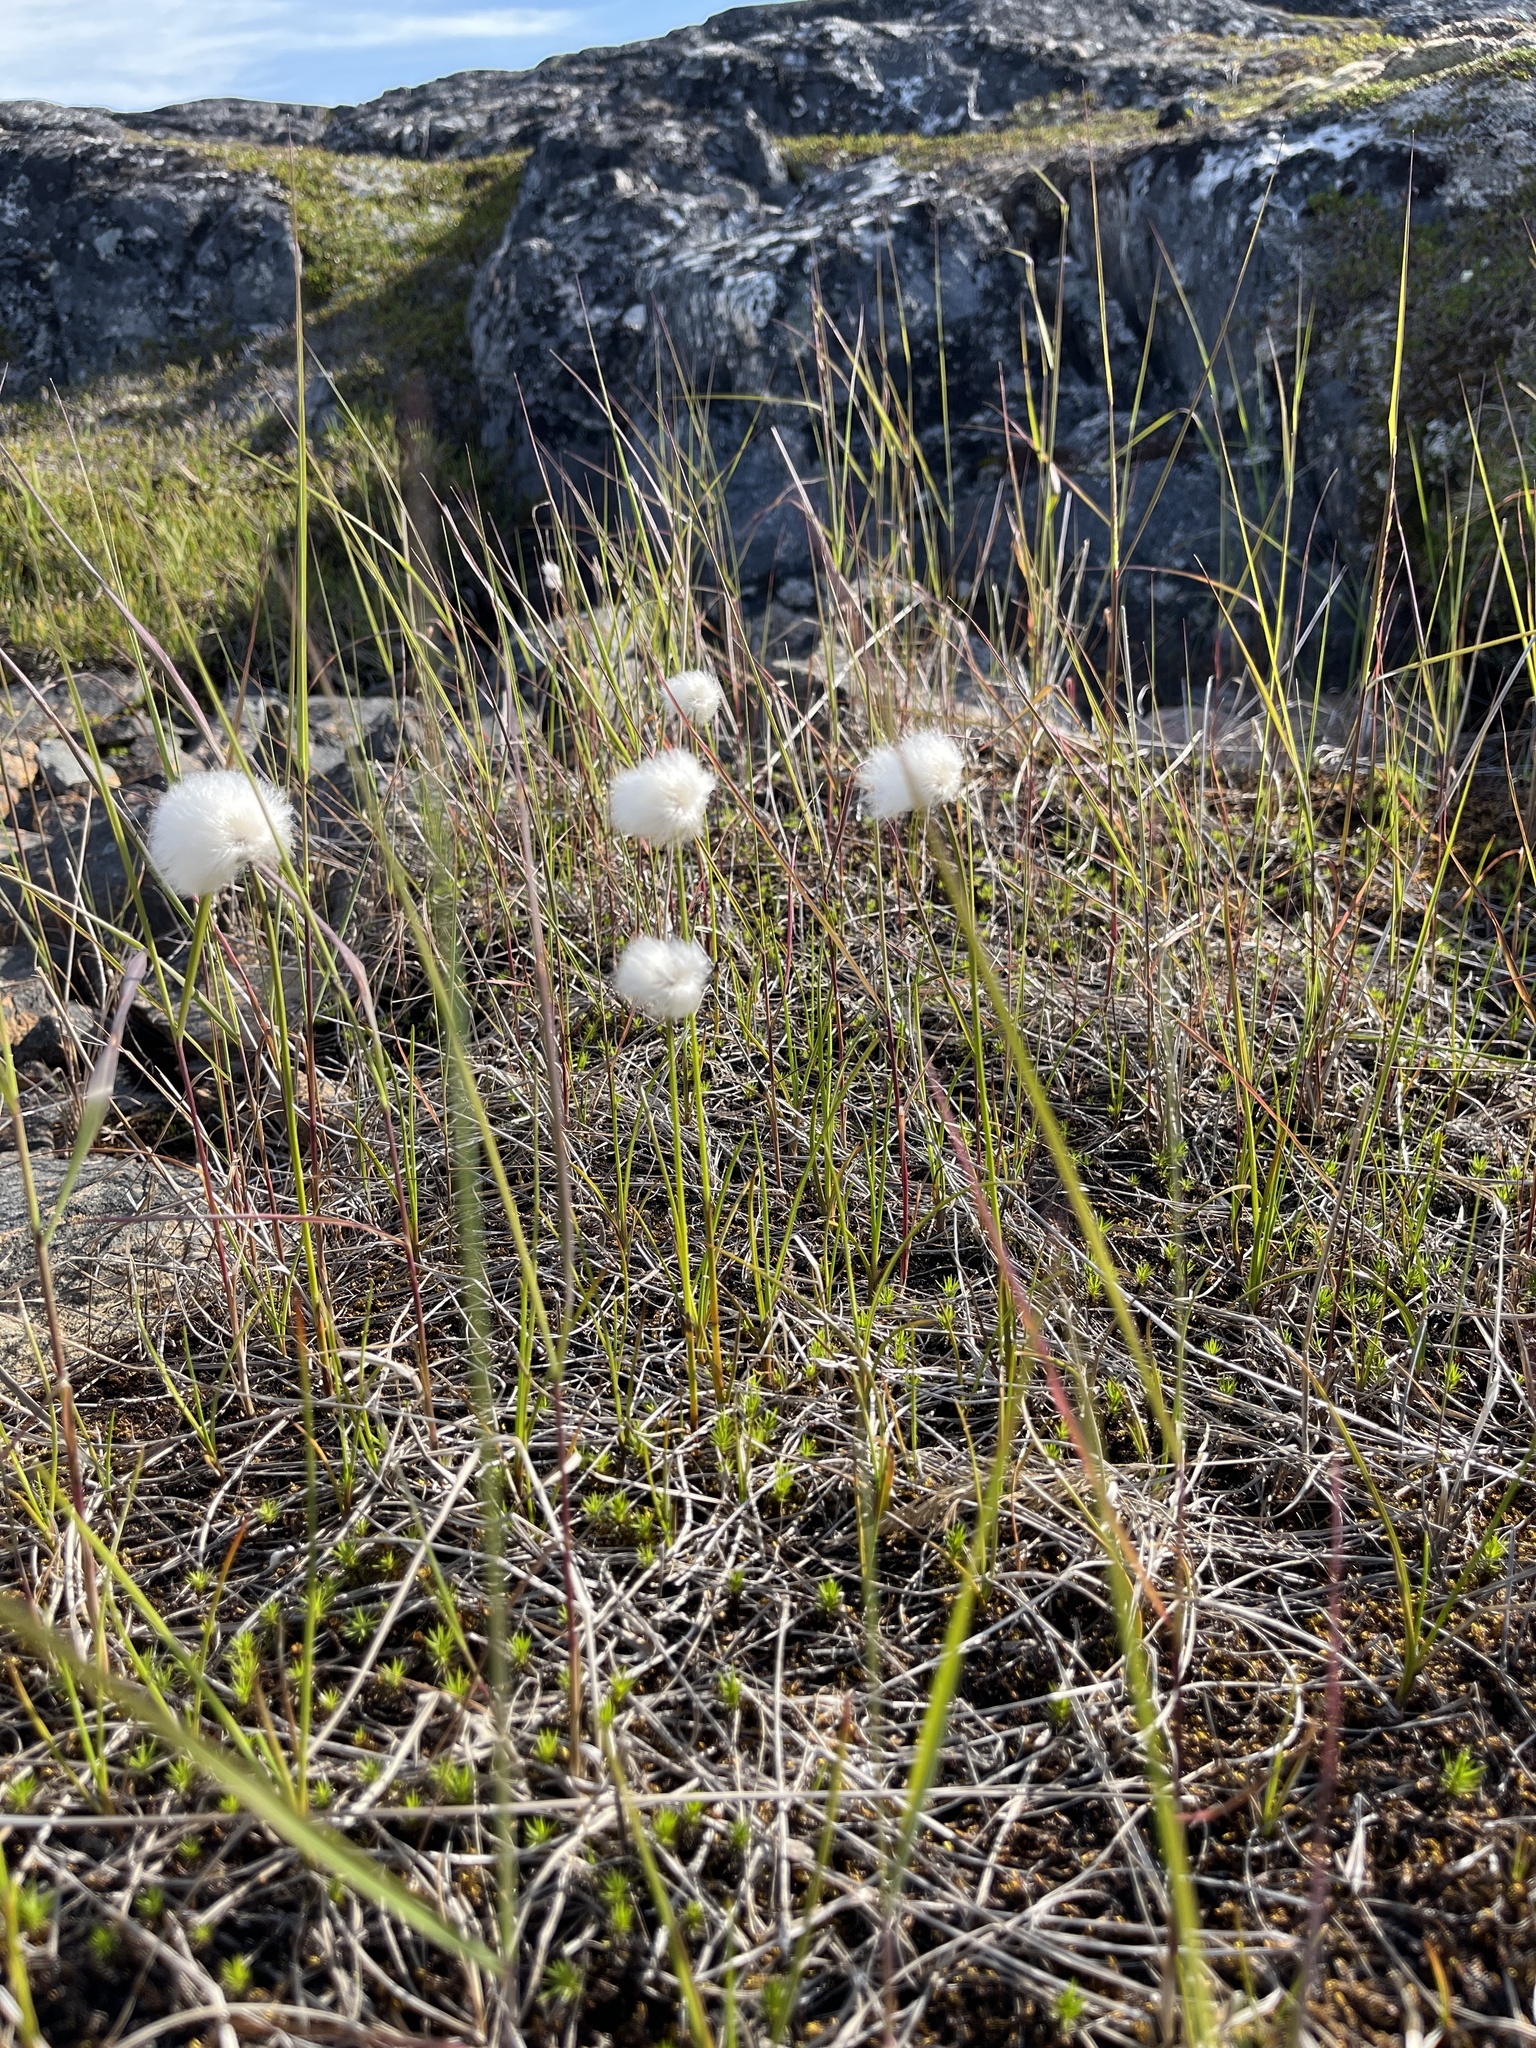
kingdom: Plantae
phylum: Tracheophyta
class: Liliopsida
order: Poales
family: Cyperaceae
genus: Eriophorum
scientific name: Eriophorum scheuchzeri
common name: Scheuchzer's cottongrass
